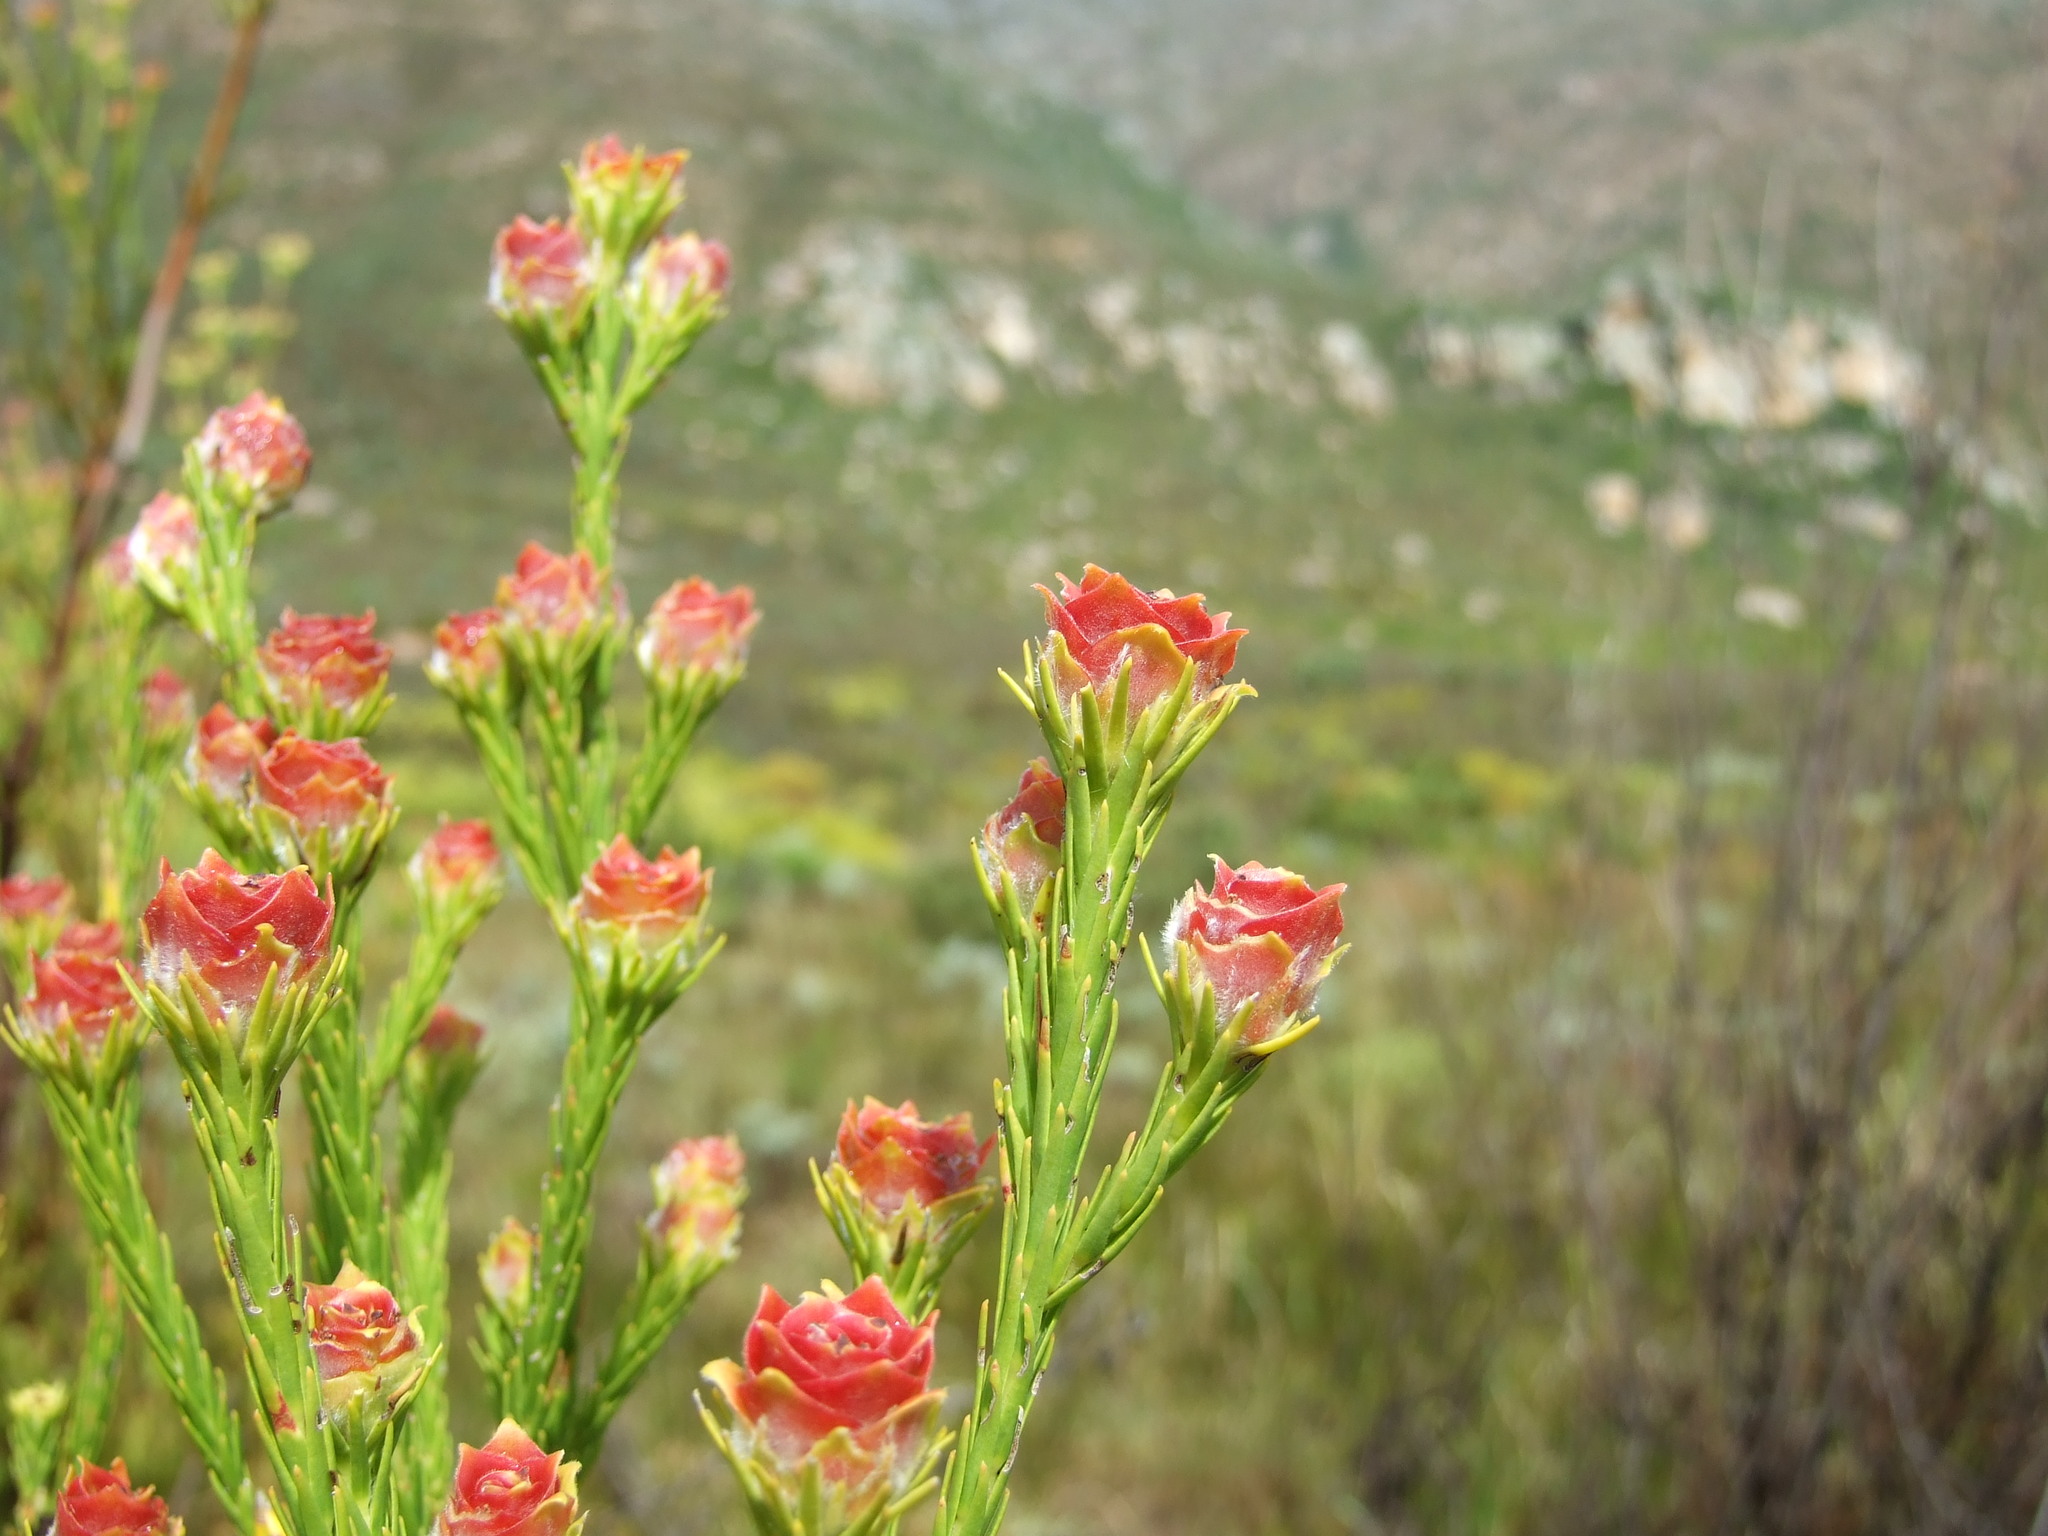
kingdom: Plantae
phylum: Tracheophyta
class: Magnoliopsida
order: Proteales
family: Proteaceae
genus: Leucadendron
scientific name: Leucadendron corymbosum
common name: Swartveld conebush
